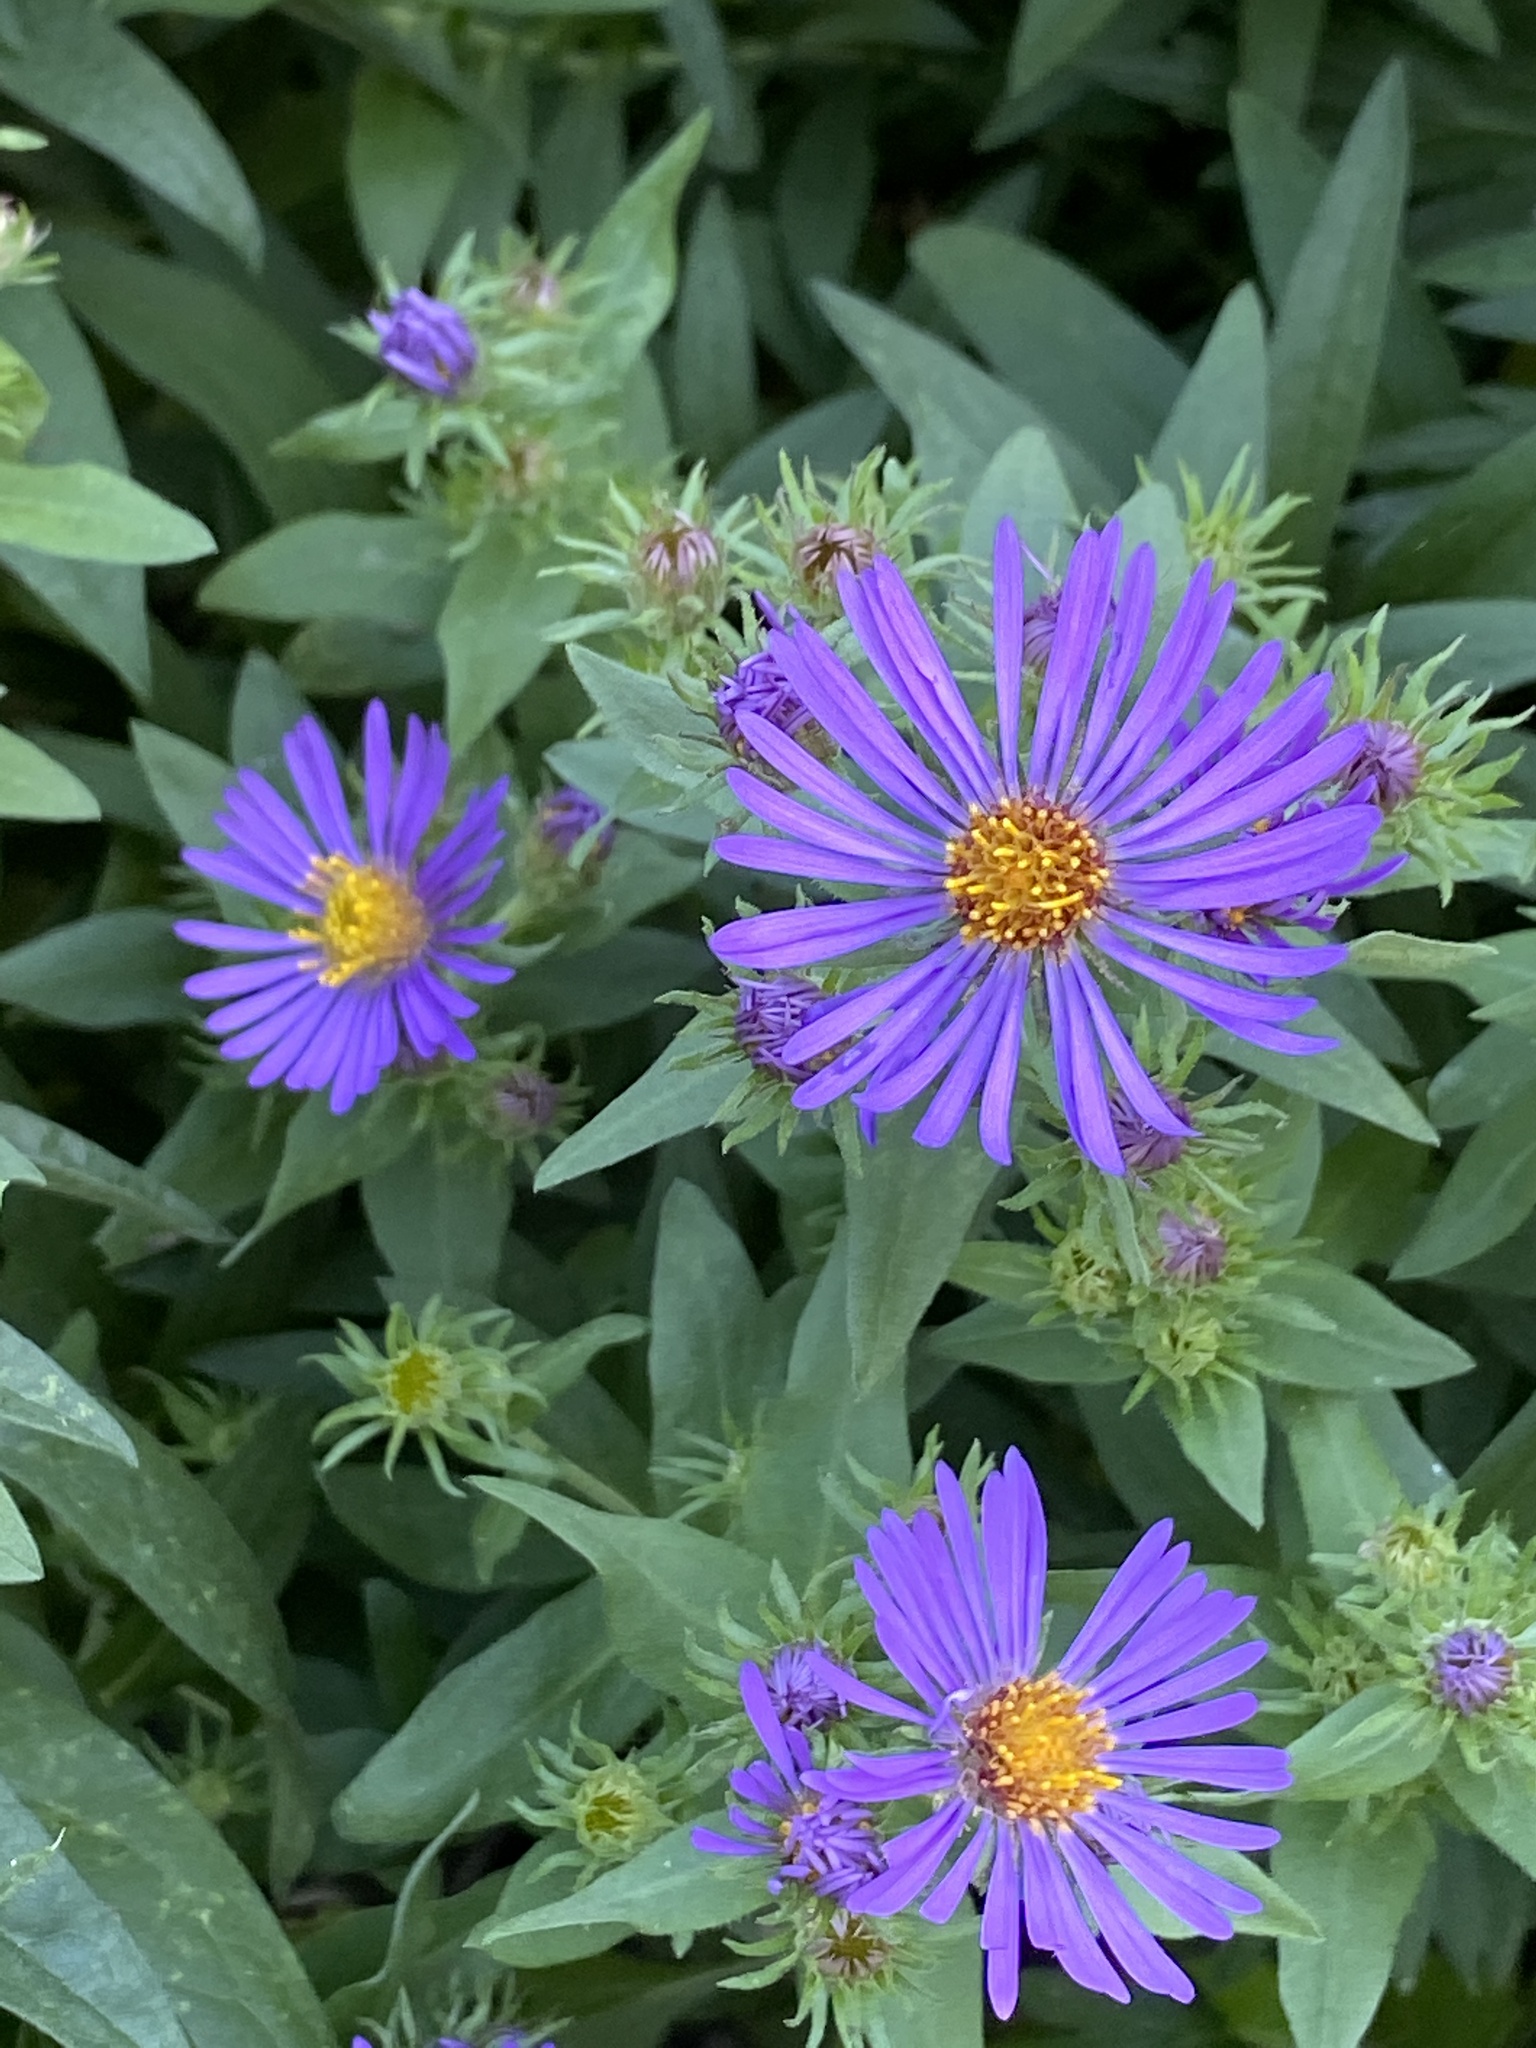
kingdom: Plantae
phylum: Tracheophyta
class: Magnoliopsida
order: Asterales
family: Asteraceae
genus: Symphyotrichum
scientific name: Symphyotrichum novae-angliae
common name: Michaelmas daisy
